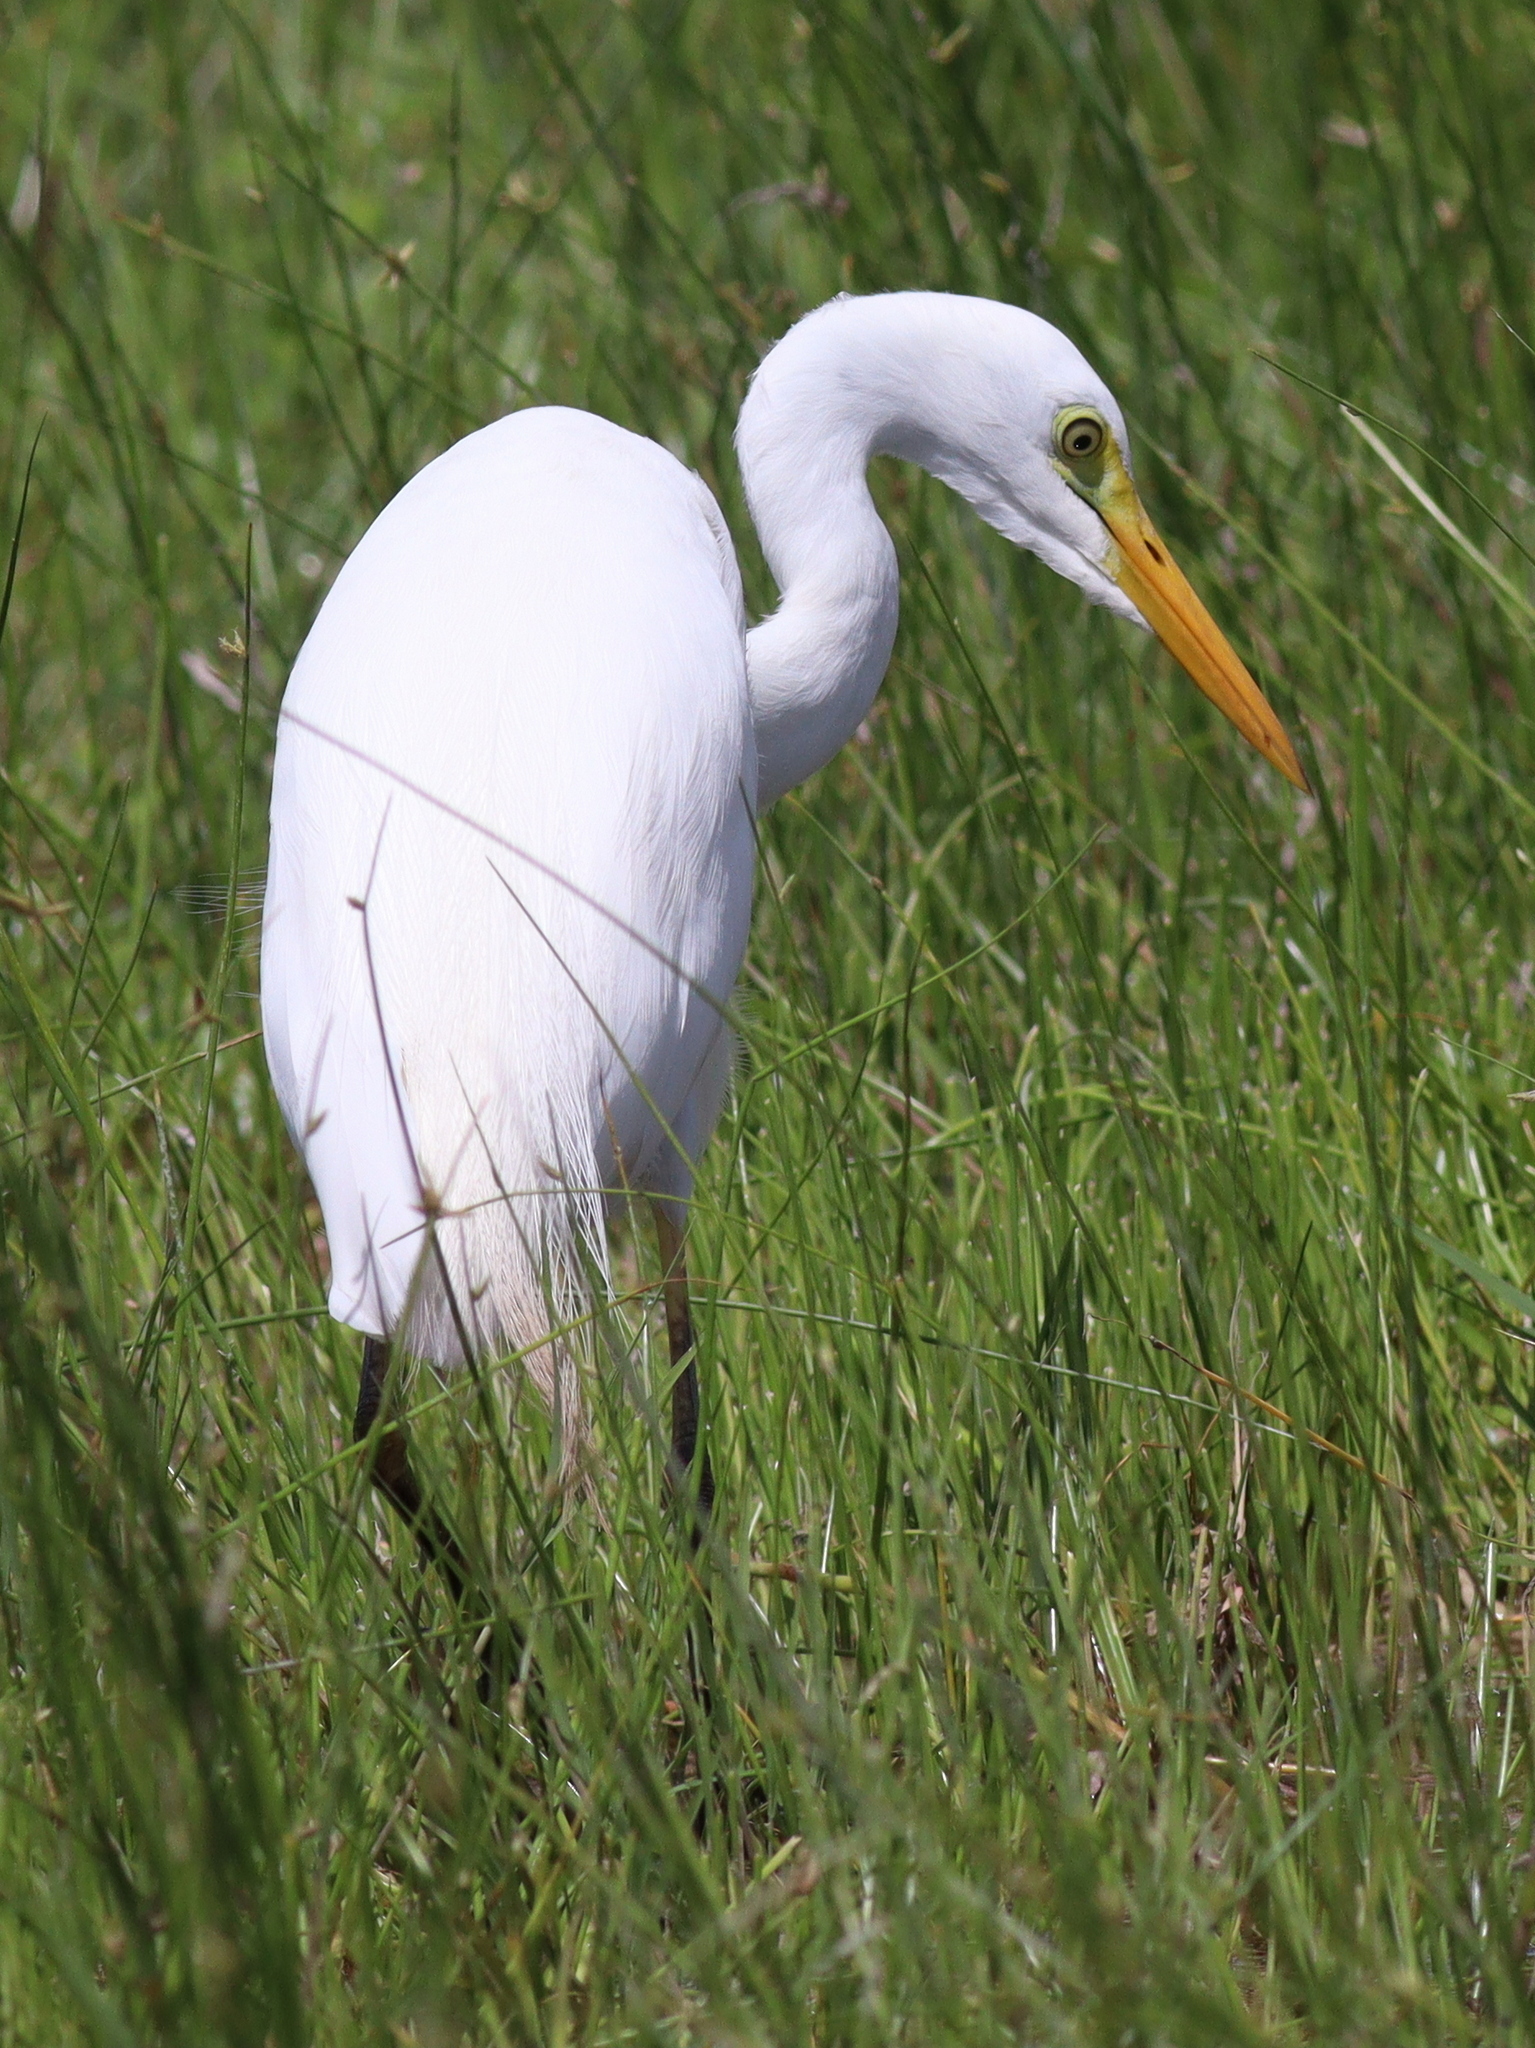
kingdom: Animalia
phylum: Chordata
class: Aves
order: Pelecaniformes
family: Ardeidae
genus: Egretta
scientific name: Egretta intermedia
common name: Intermediate egret
